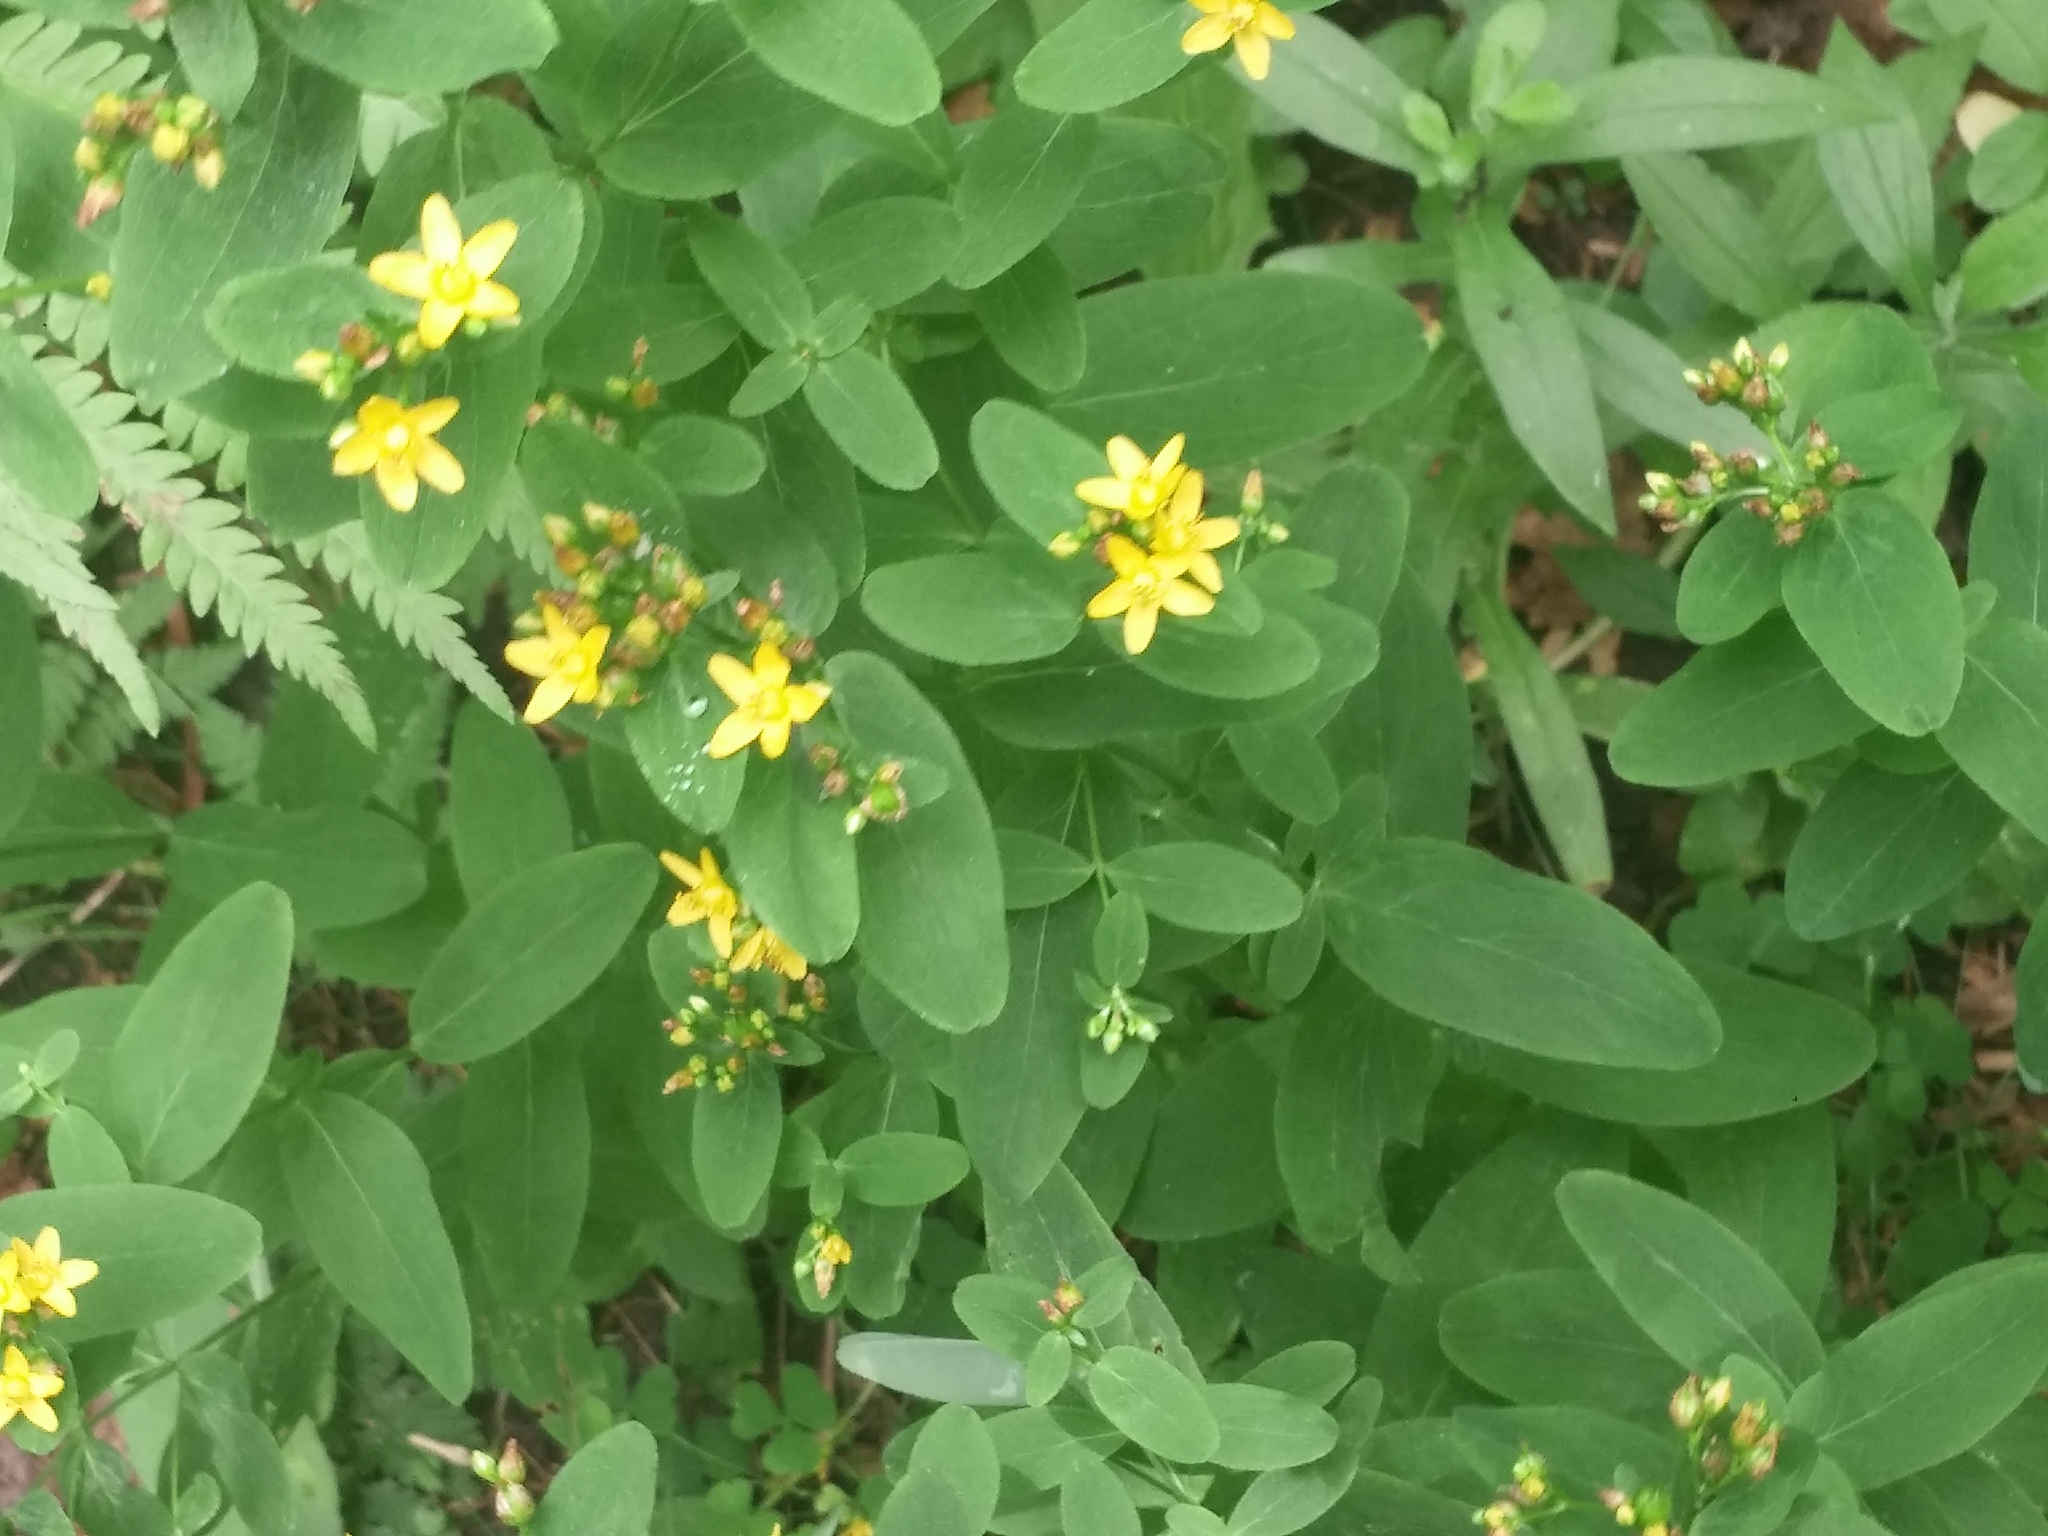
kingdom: Plantae
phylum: Tracheophyta
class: Magnoliopsida
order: Malpighiales
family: Hypericaceae
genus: Hypericum
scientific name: Hypericum punctatum
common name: Spotted st. john's-wort
